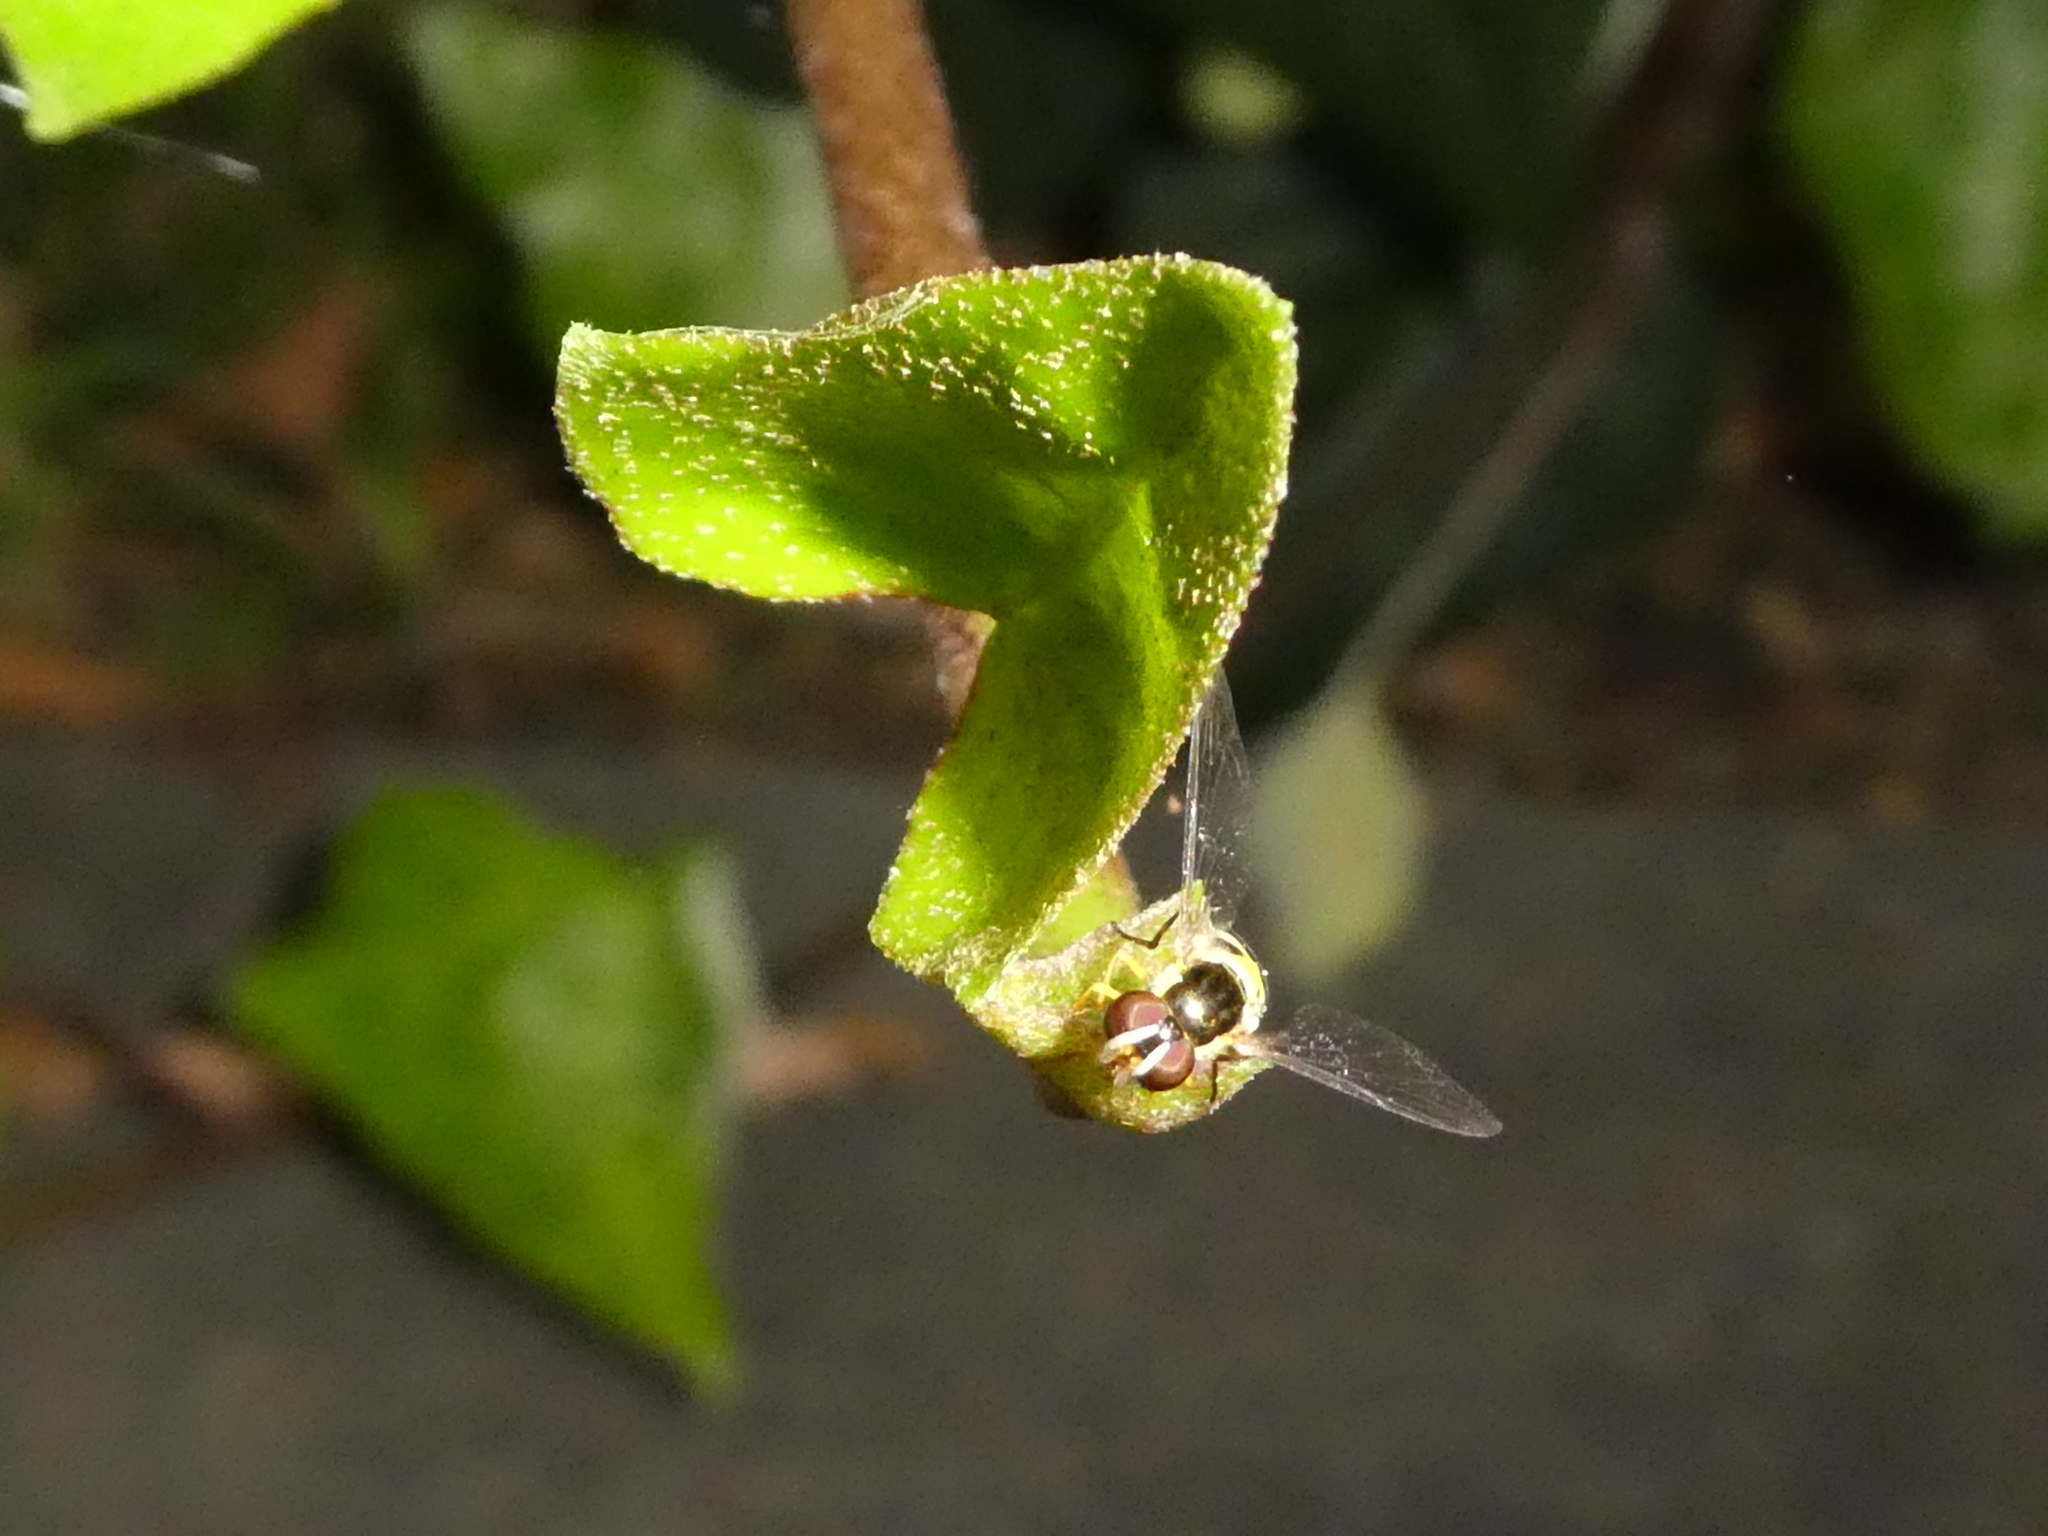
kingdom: Animalia
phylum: Arthropoda
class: Insecta
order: Diptera
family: Syrphidae
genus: Allograpta
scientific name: Allograpta obliqua
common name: Common oblique syrphid
